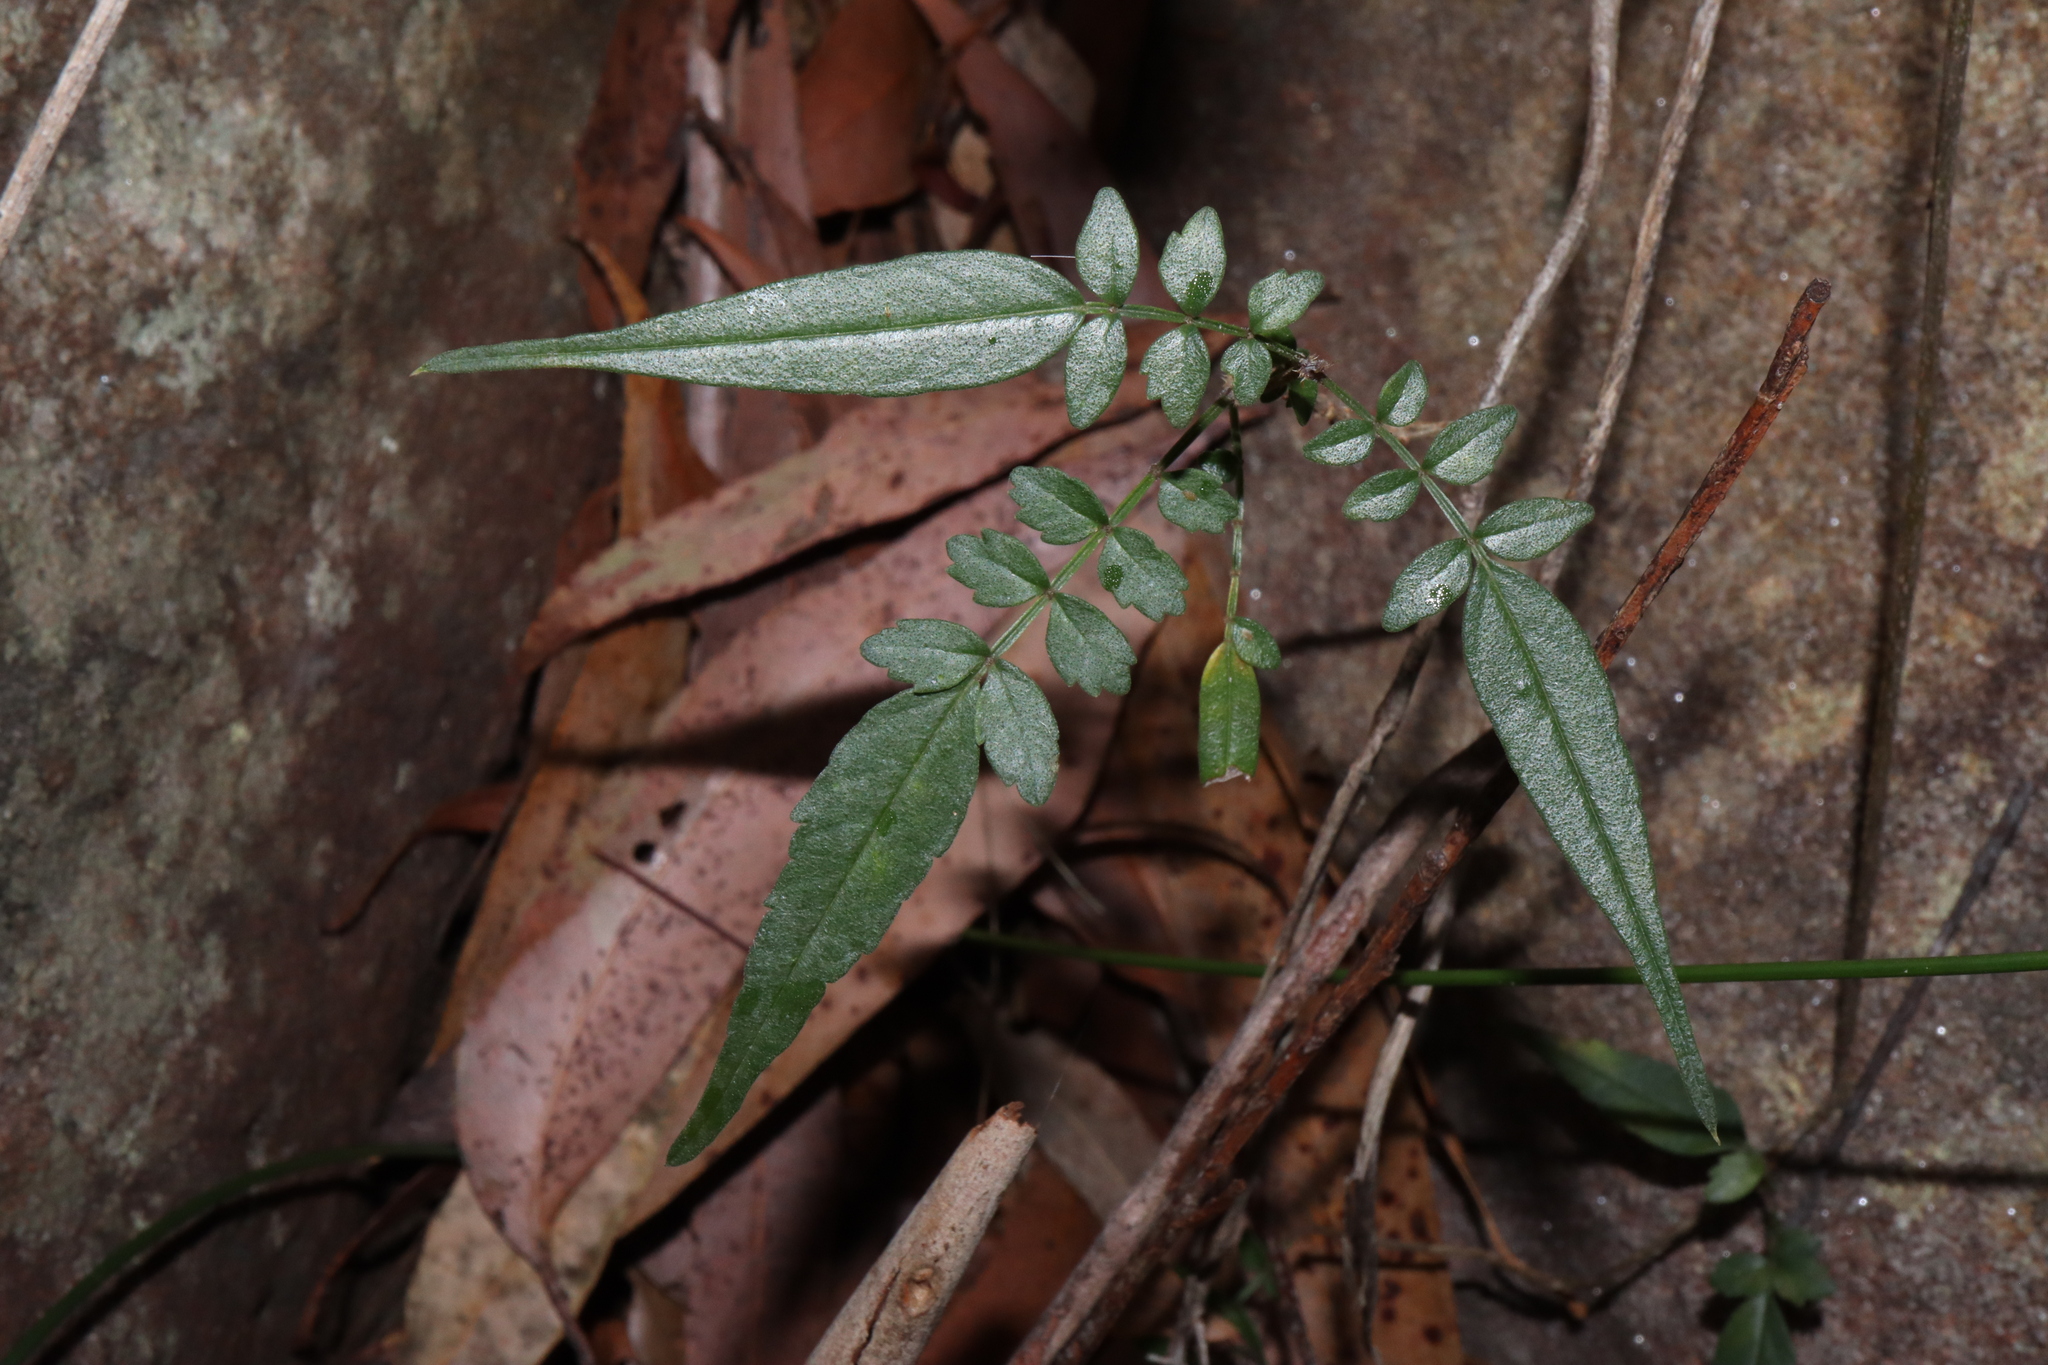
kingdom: Plantae
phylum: Tracheophyta
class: Magnoliopsida
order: Lamiales
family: Bignoniaceae
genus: Pandorea
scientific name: Pandorea pandorana
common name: Wonga-wonga-vine
